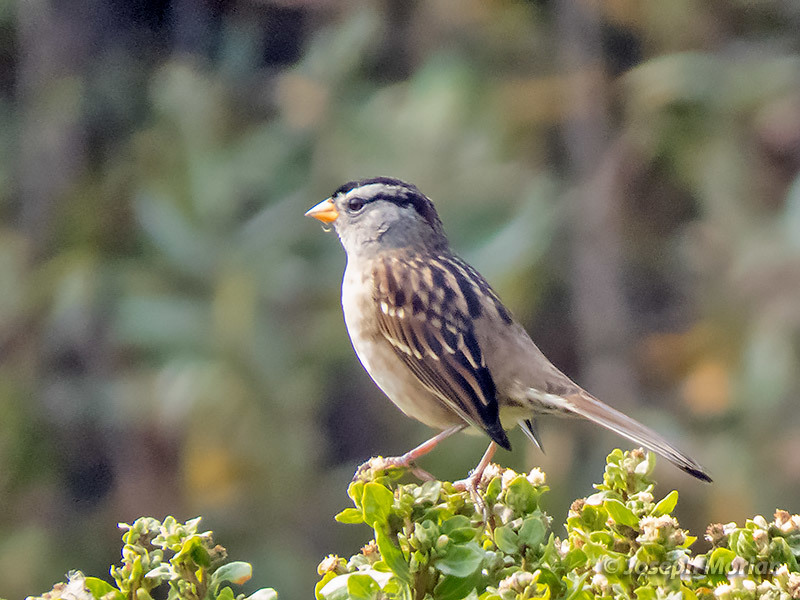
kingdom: Animalia
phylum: Chordata
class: Aves
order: Passeriformes
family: Passerellidae
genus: Zonotrichia
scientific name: Zonotrichia leucophrys
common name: White-crowned sparrow
